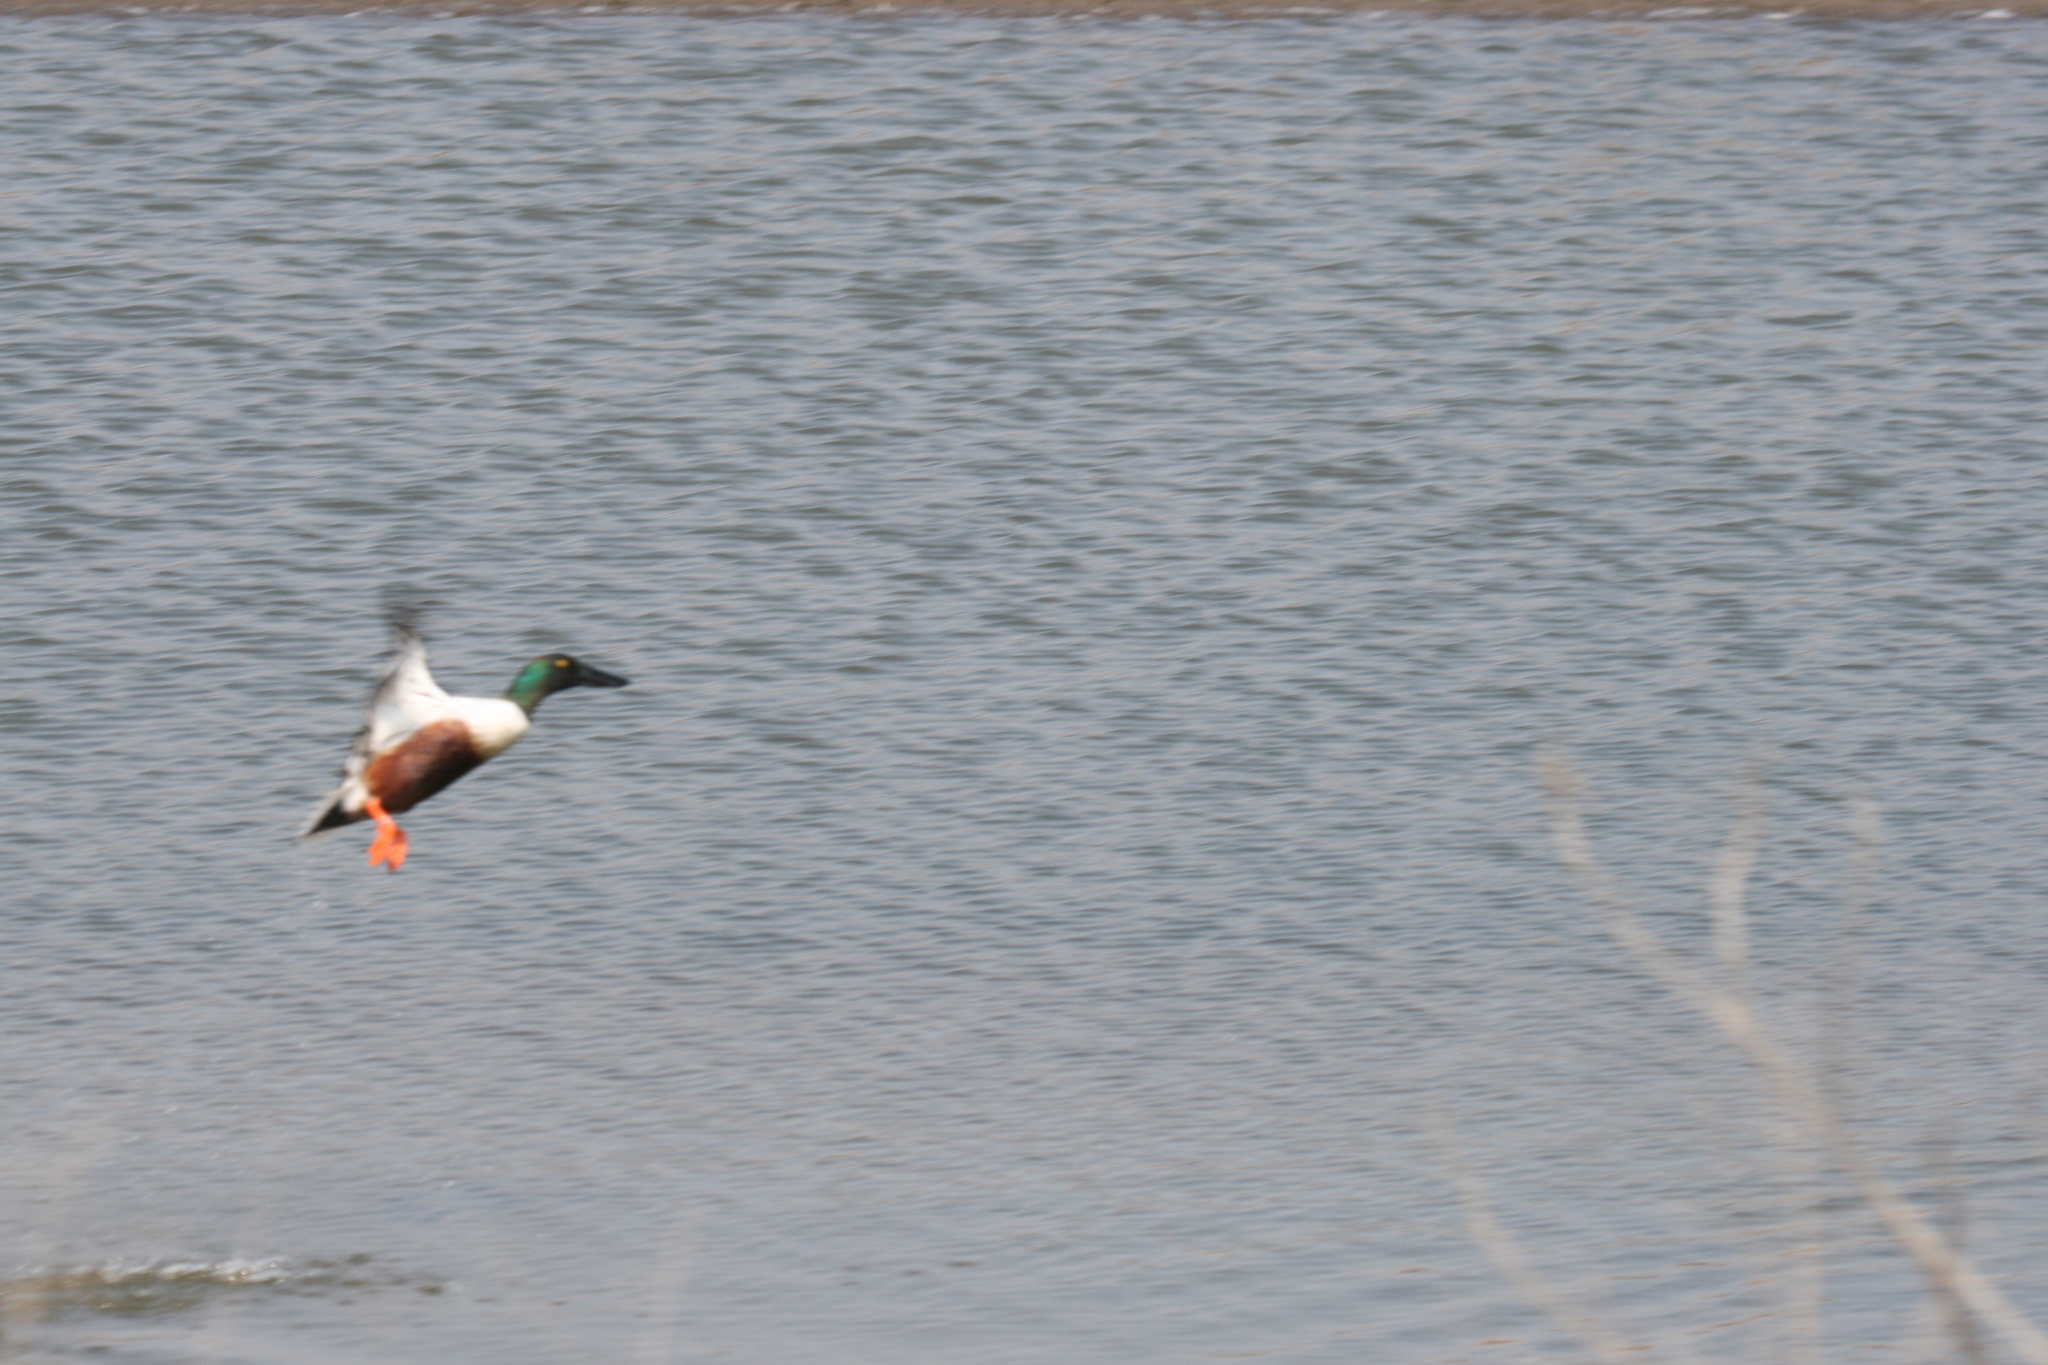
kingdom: Animalia
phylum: Chordata
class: Aves
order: Anseriformes
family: Anatidae
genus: Spatula
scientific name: Spatula clypeata
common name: Northern shoveler
